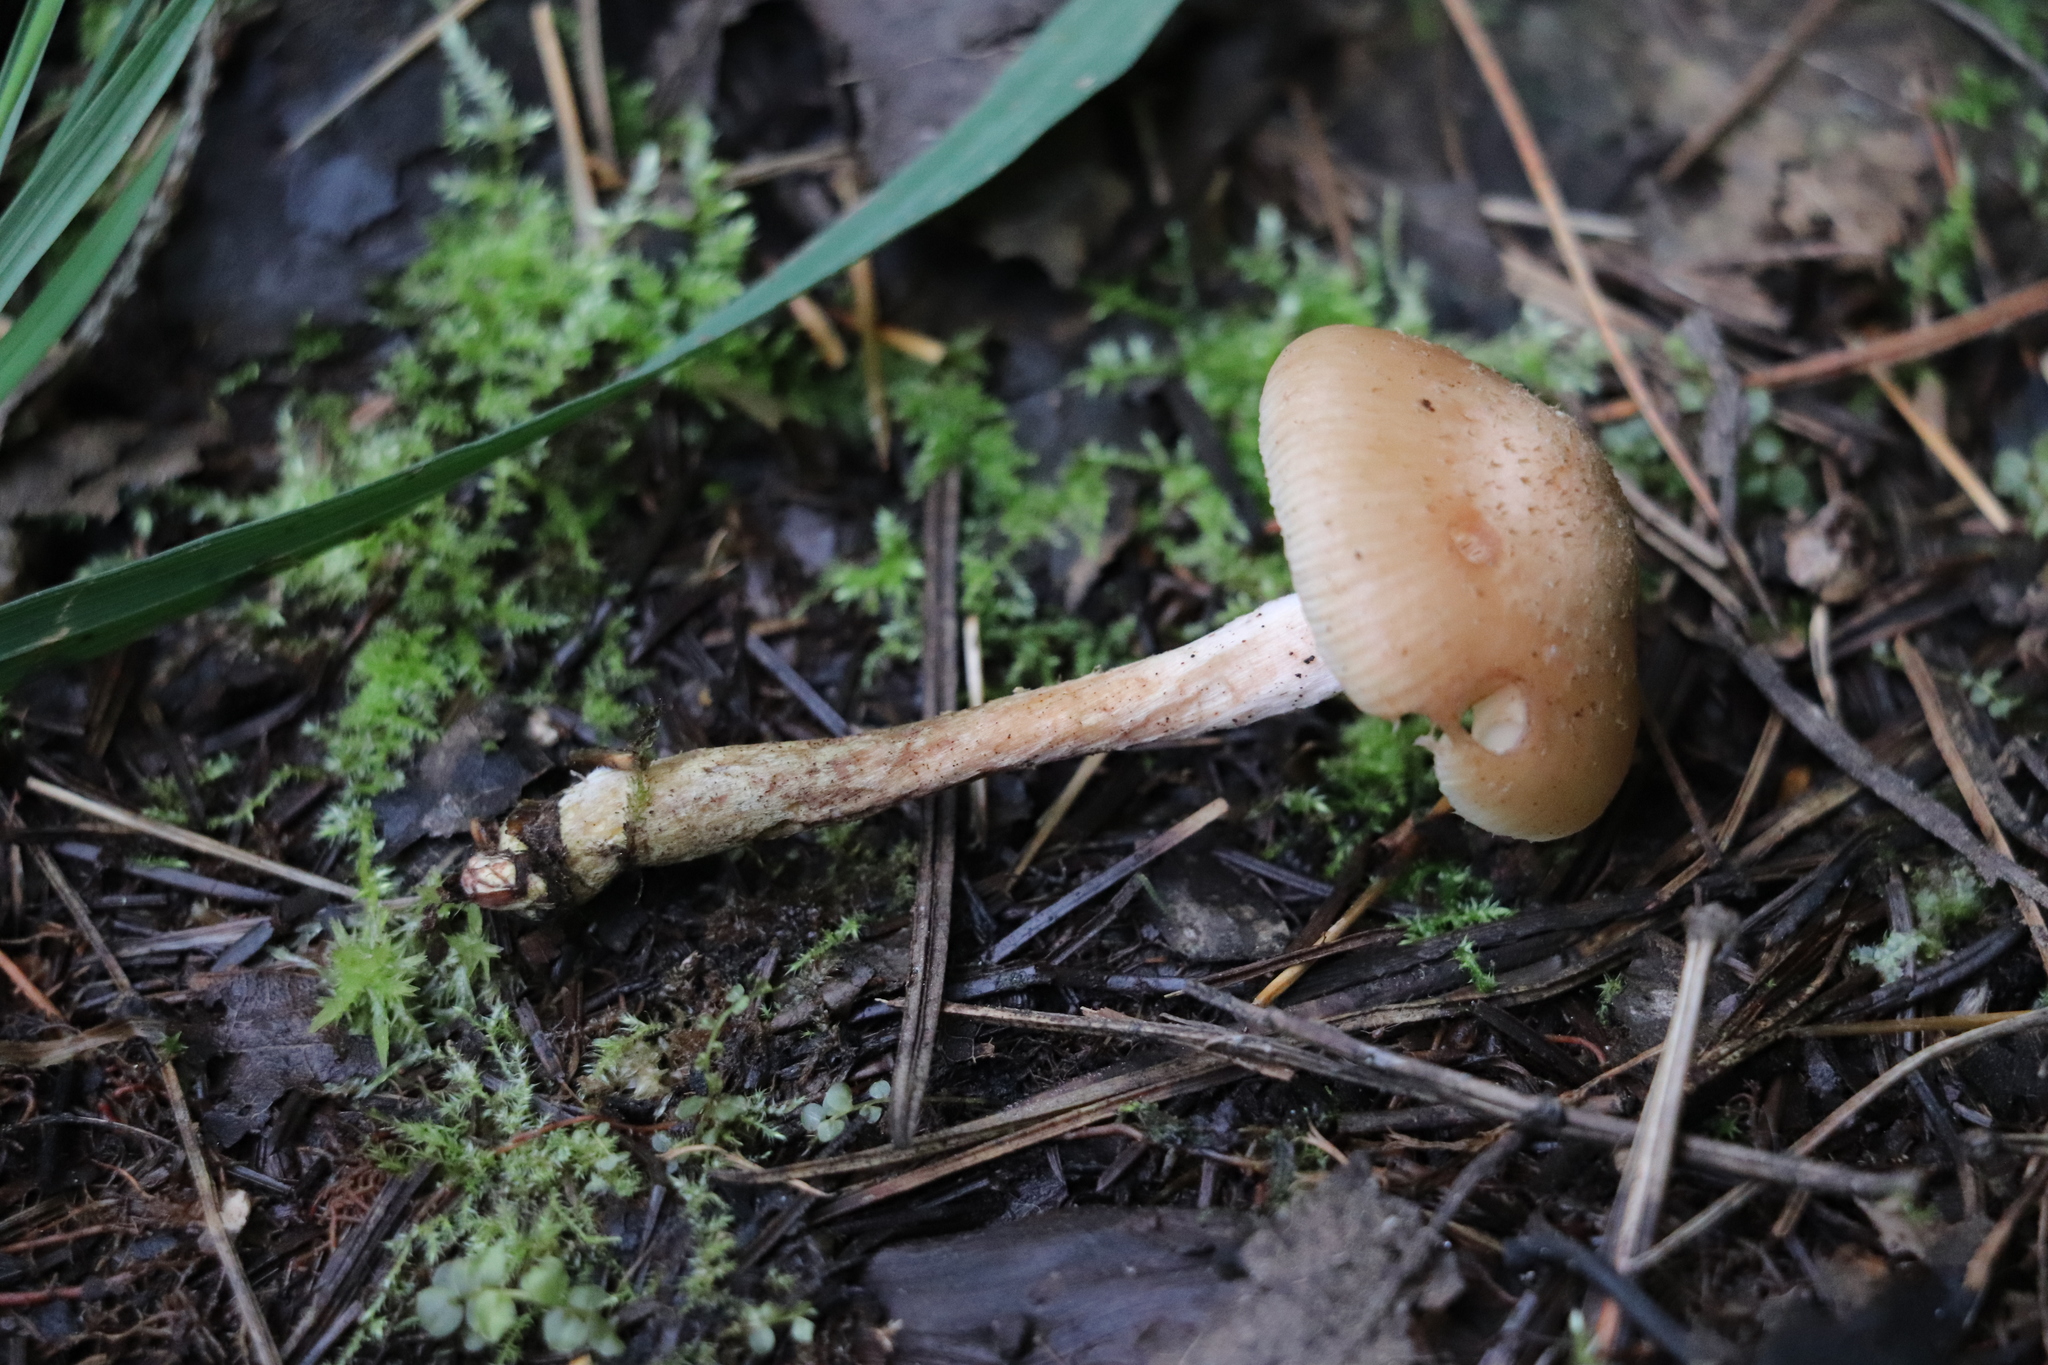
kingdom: Fungi
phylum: Basidiomycota
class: Agaricomycetes
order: Agaricales
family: Physalacriaceae
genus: Armillaria
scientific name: Armillaria cepistipes
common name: Mullet honey fungus
